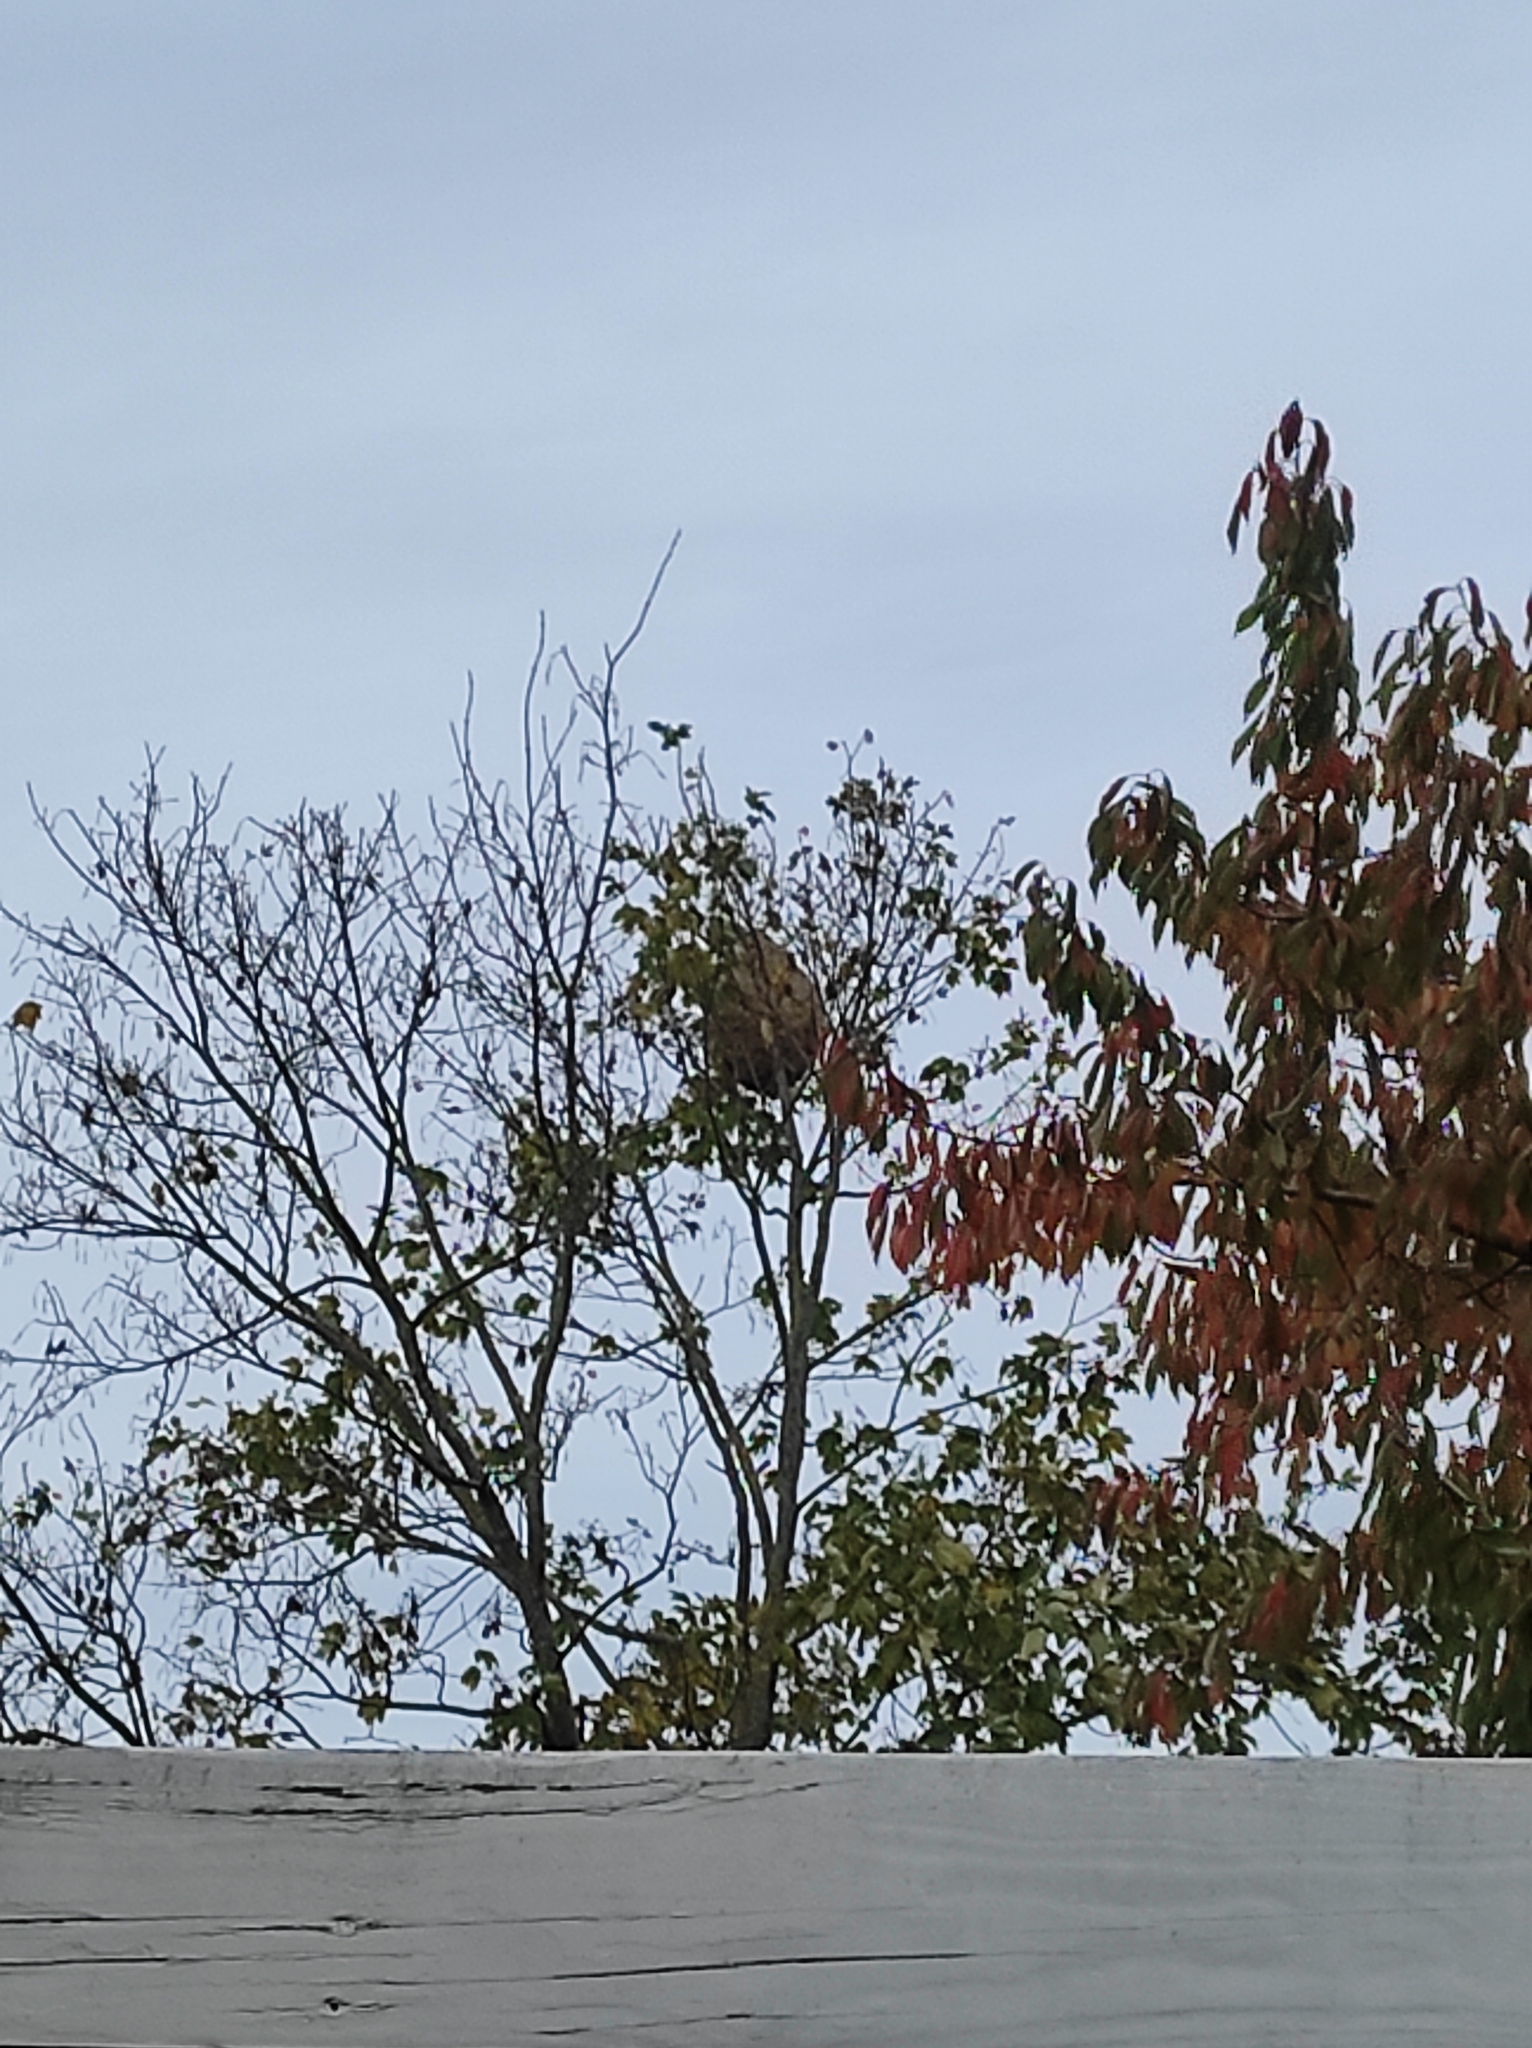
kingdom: Animalia
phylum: Arthropoda
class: Insecta
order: Hymenoptera
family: Vespidae
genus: Vespa
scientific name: Vespa velutina
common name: Asian hornet
